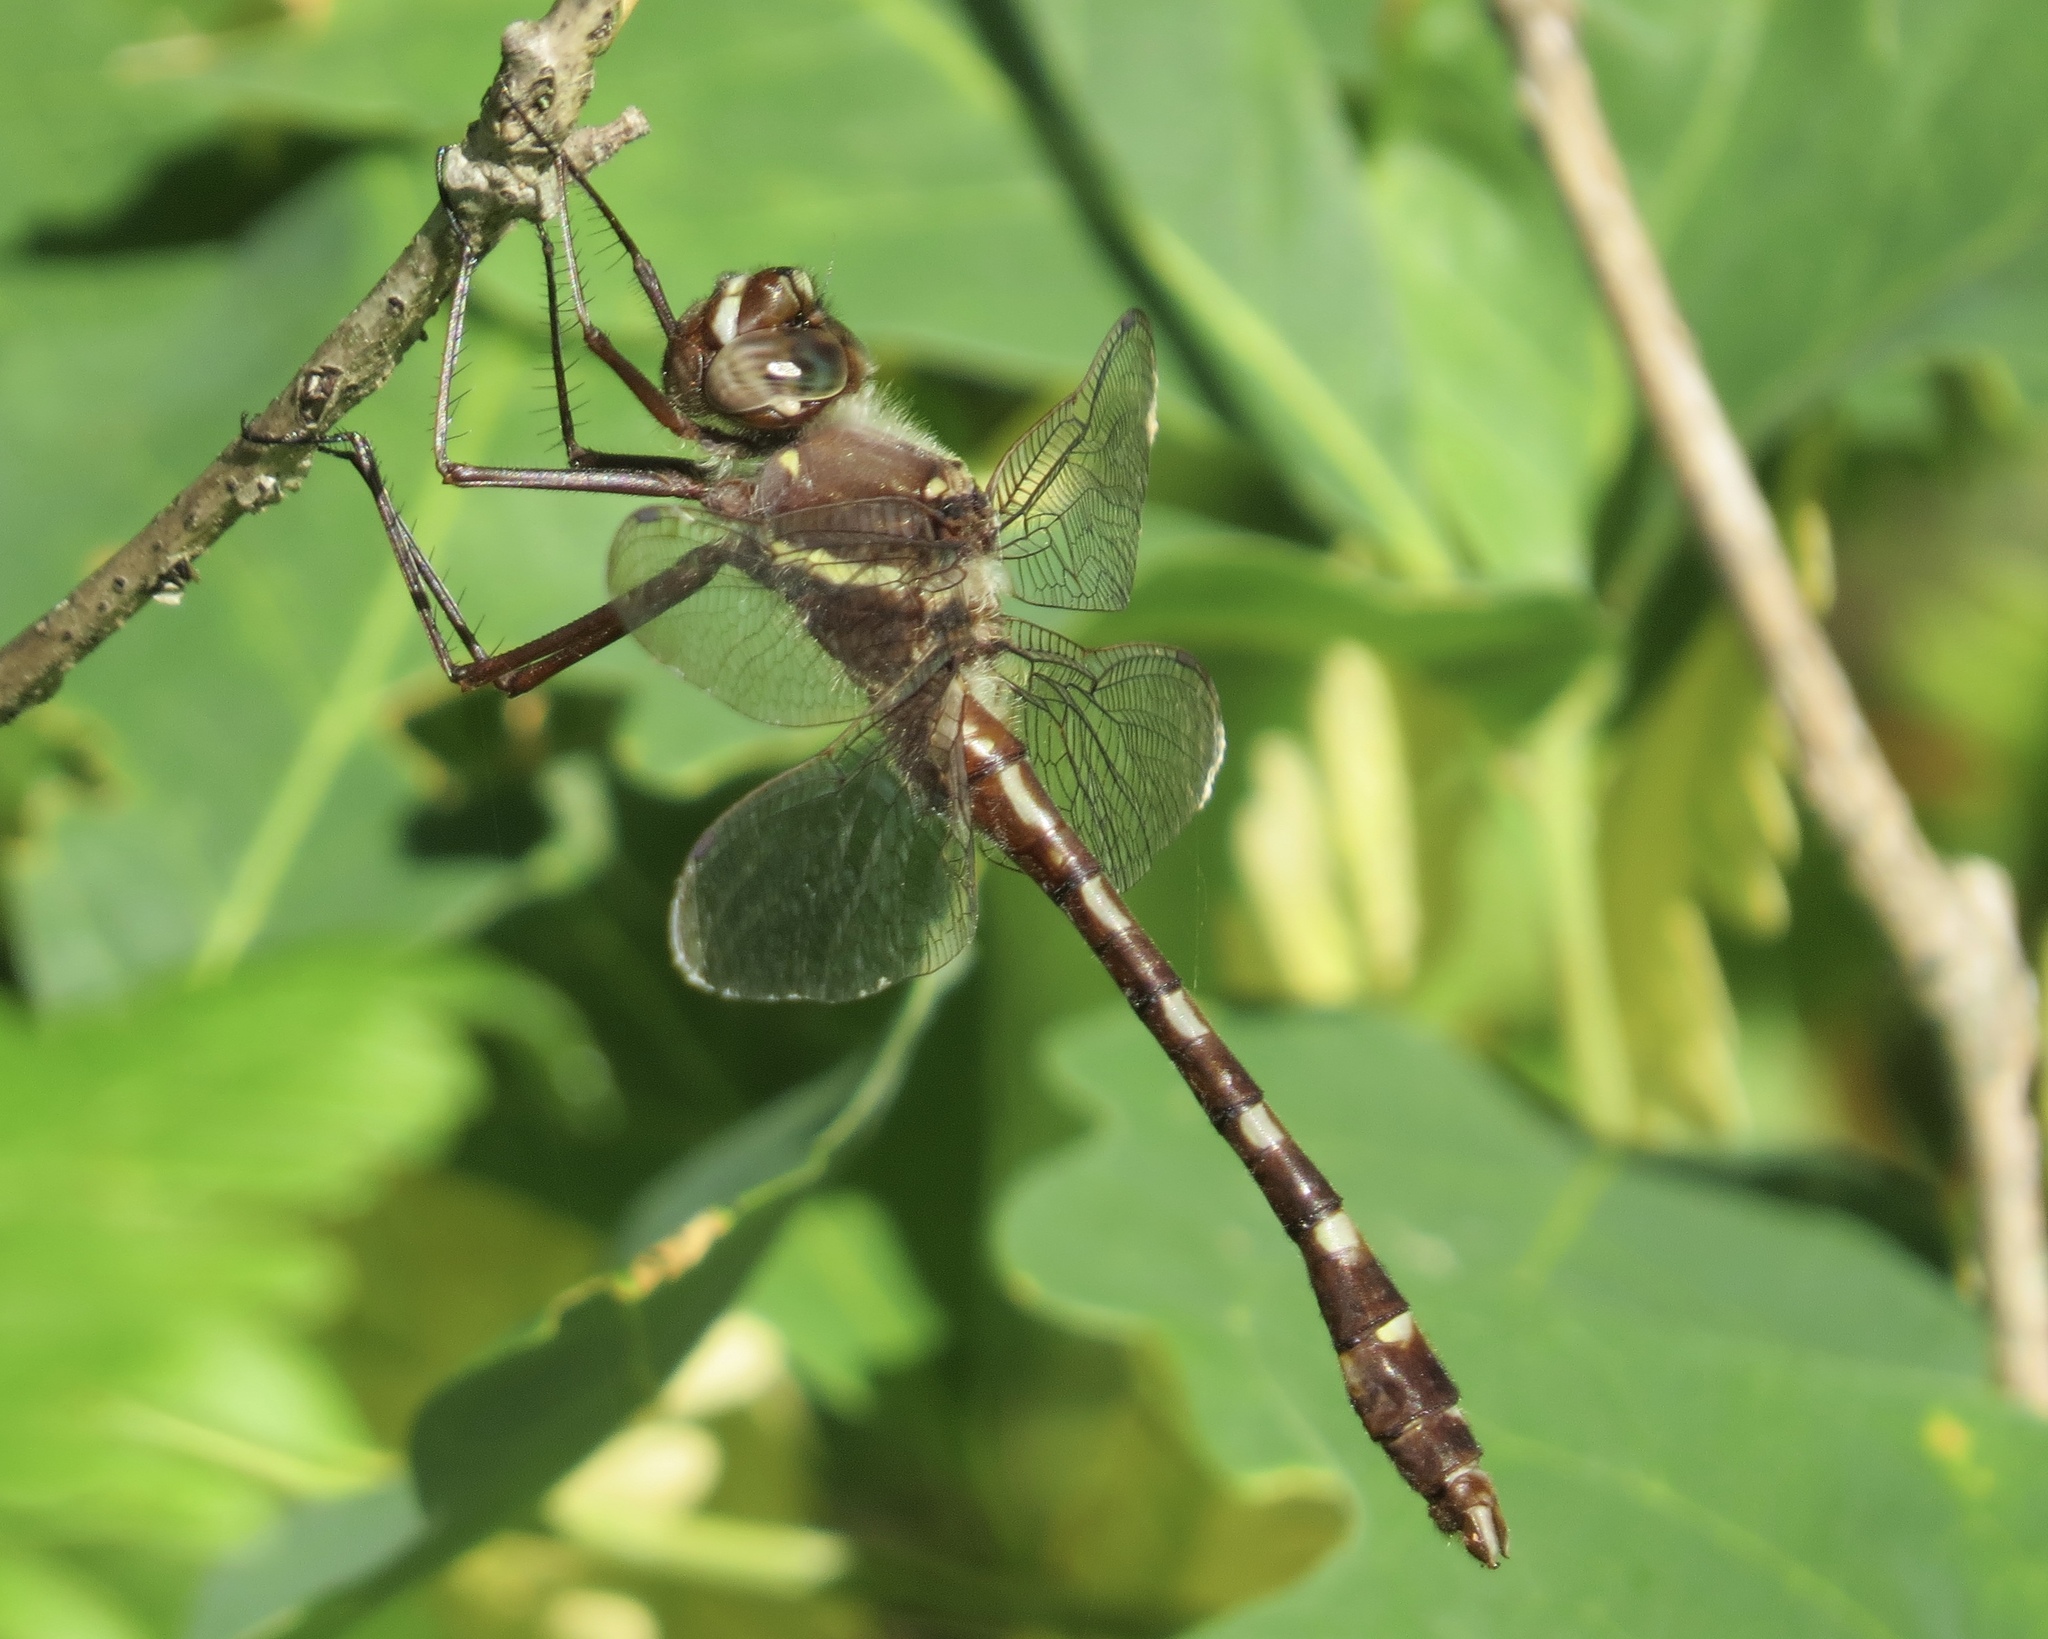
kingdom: Animalia
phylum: Arthropoda
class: Insecta
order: Odonata
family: Macromiidae
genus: Didymops
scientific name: Didymops transversa
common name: Stream cruiser
